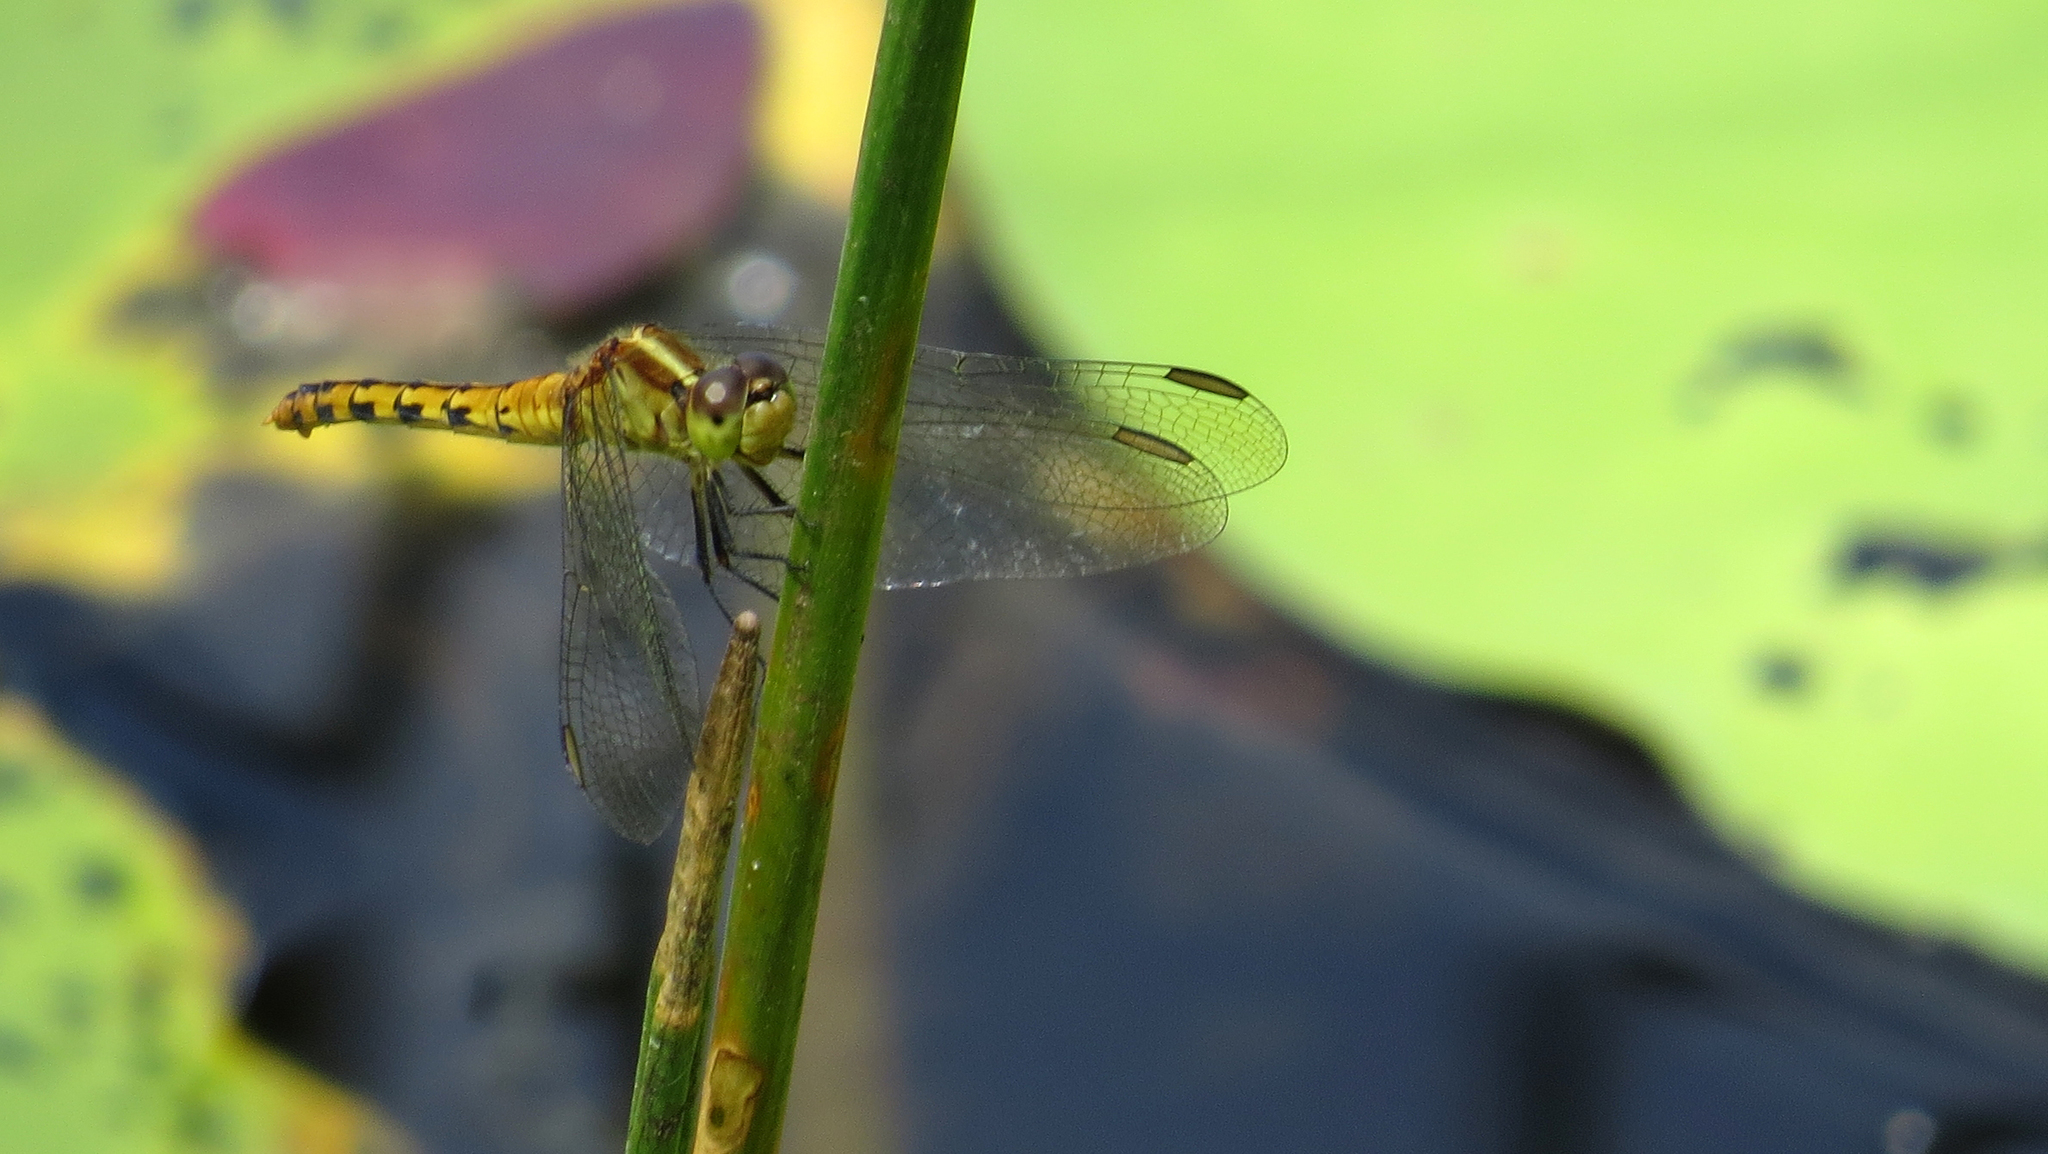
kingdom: Animalia
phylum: Arthropoda
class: Insecta
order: Odonata
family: Libellulidae
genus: Diplacodes
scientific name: Diplacodes melanopsis
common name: Black-faced percher
